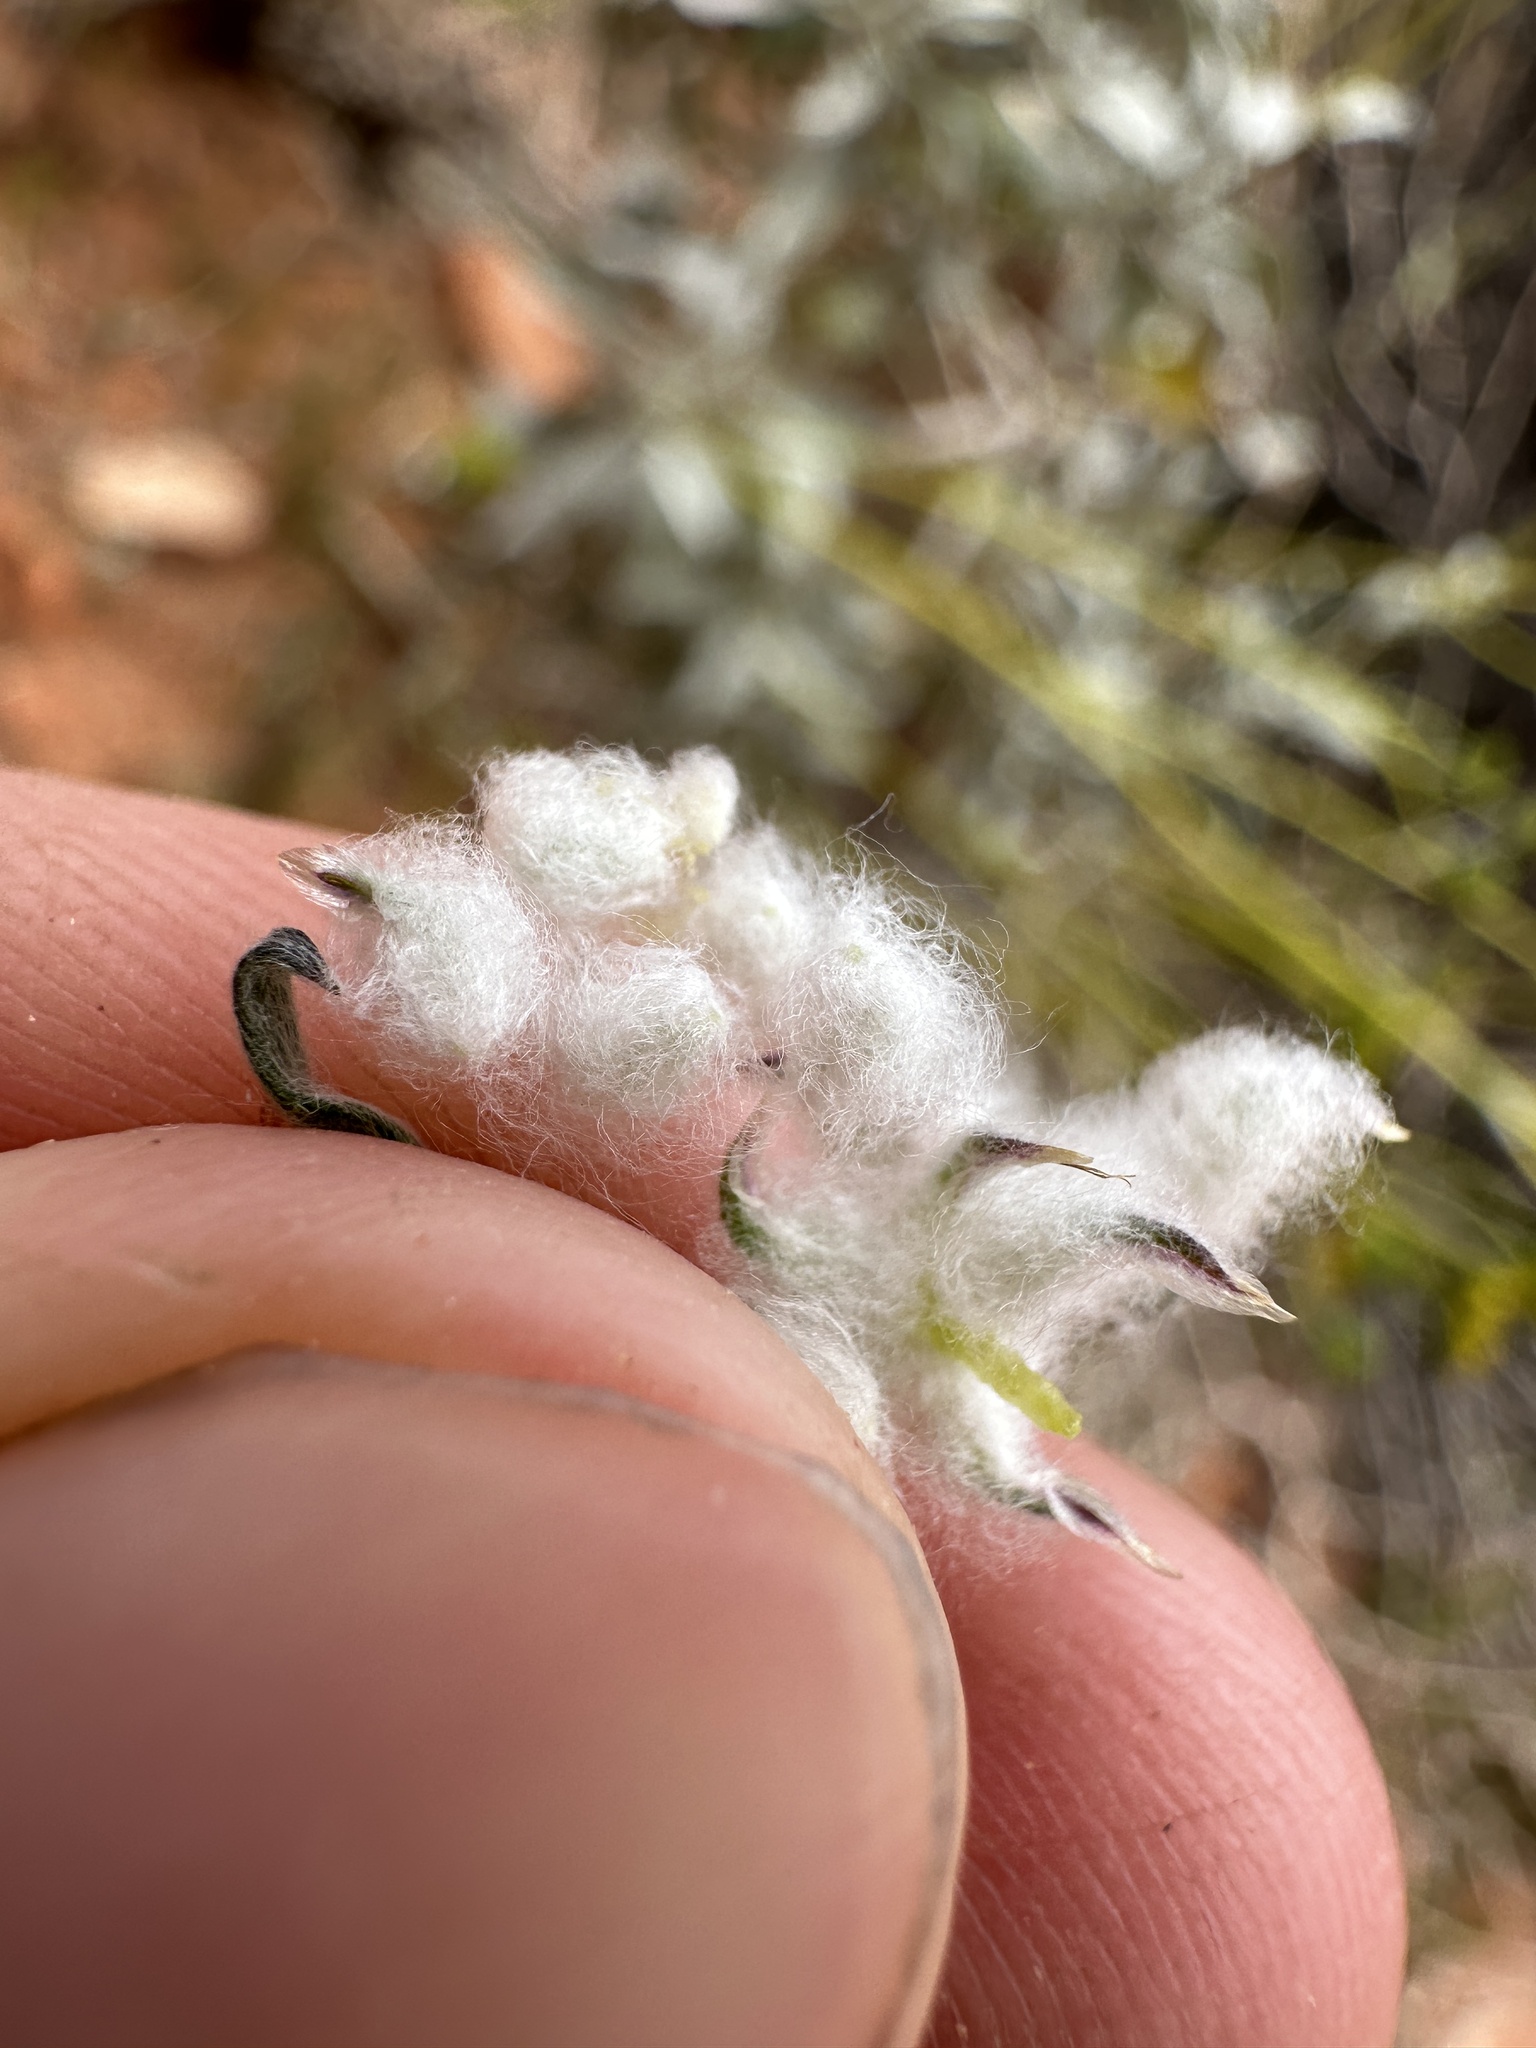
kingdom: Plantae
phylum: Tracheophyta
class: Magnoliopsida
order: Asterales
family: Asteraceae
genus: Stylocline
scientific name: Stylocline micropoides
